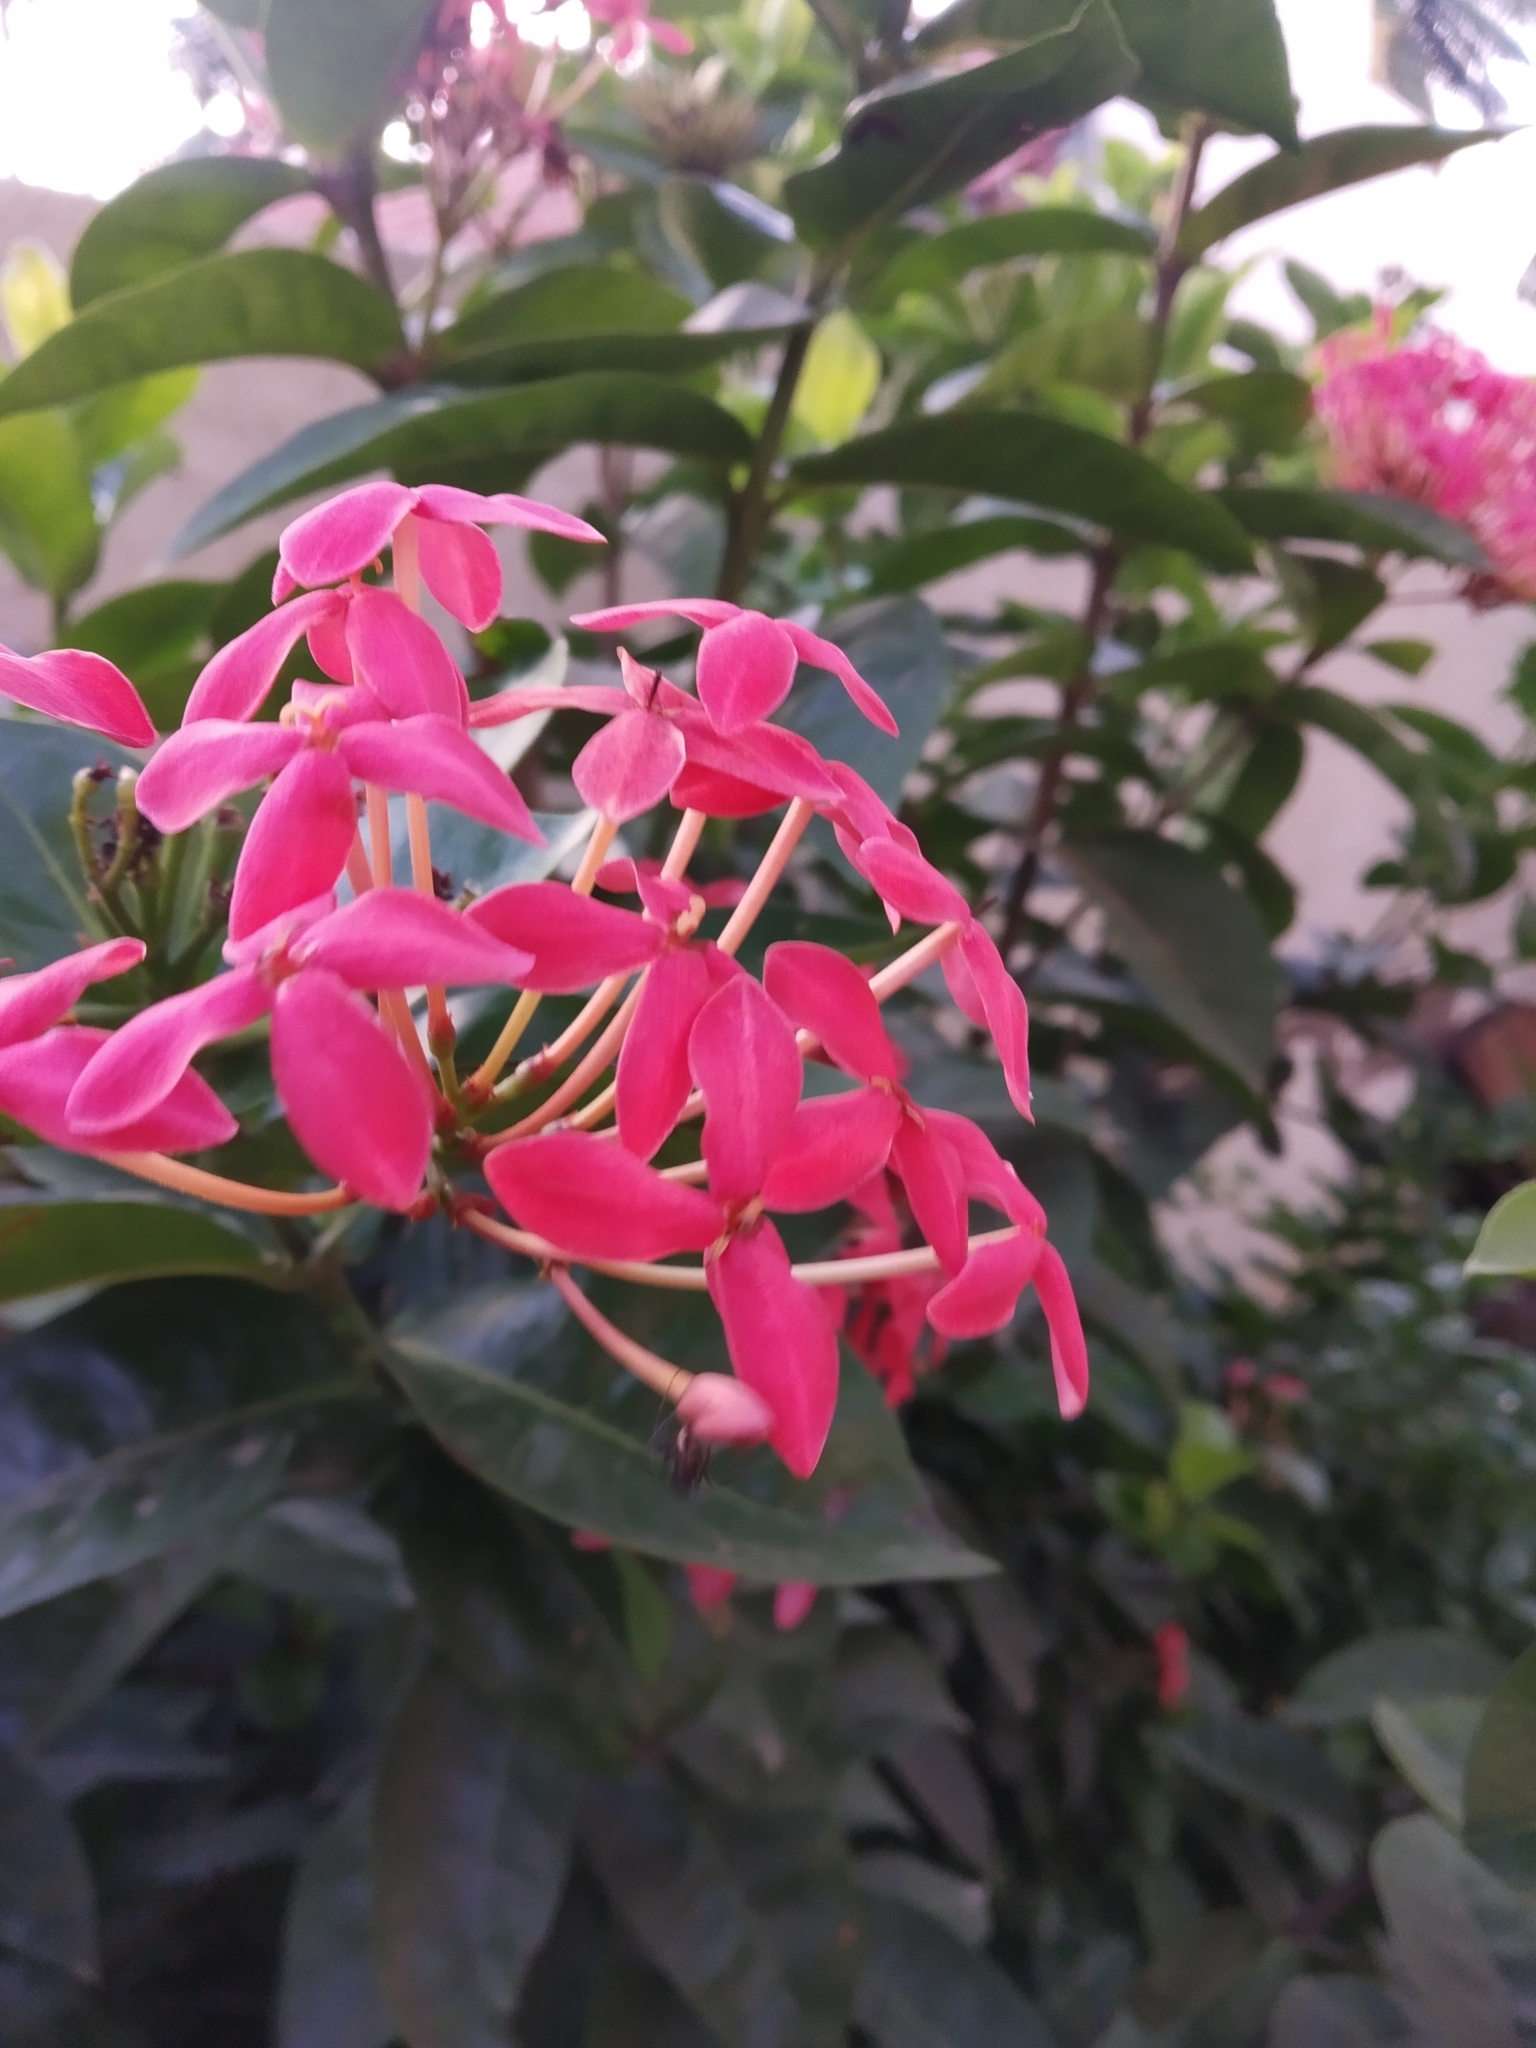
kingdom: Plantae
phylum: Tracheophyta
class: Magnoliopsida
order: Gentianales
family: Rubiaceae
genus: Ixora
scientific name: Ixora coccinea
